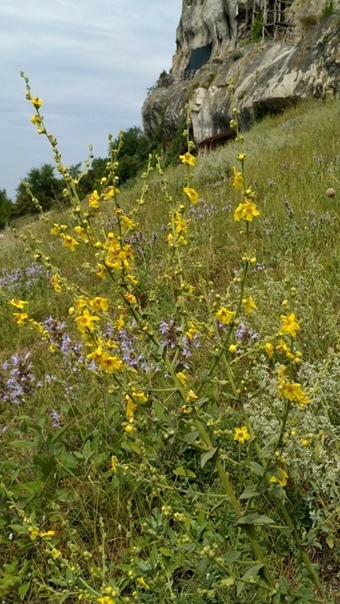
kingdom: Plantae
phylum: Tracheophyta
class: Magnoliopsida
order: Lamiales
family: Scrophulariaceae
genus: Verbascum
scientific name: Verbascum pyramidatum
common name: Caucasian mullein
